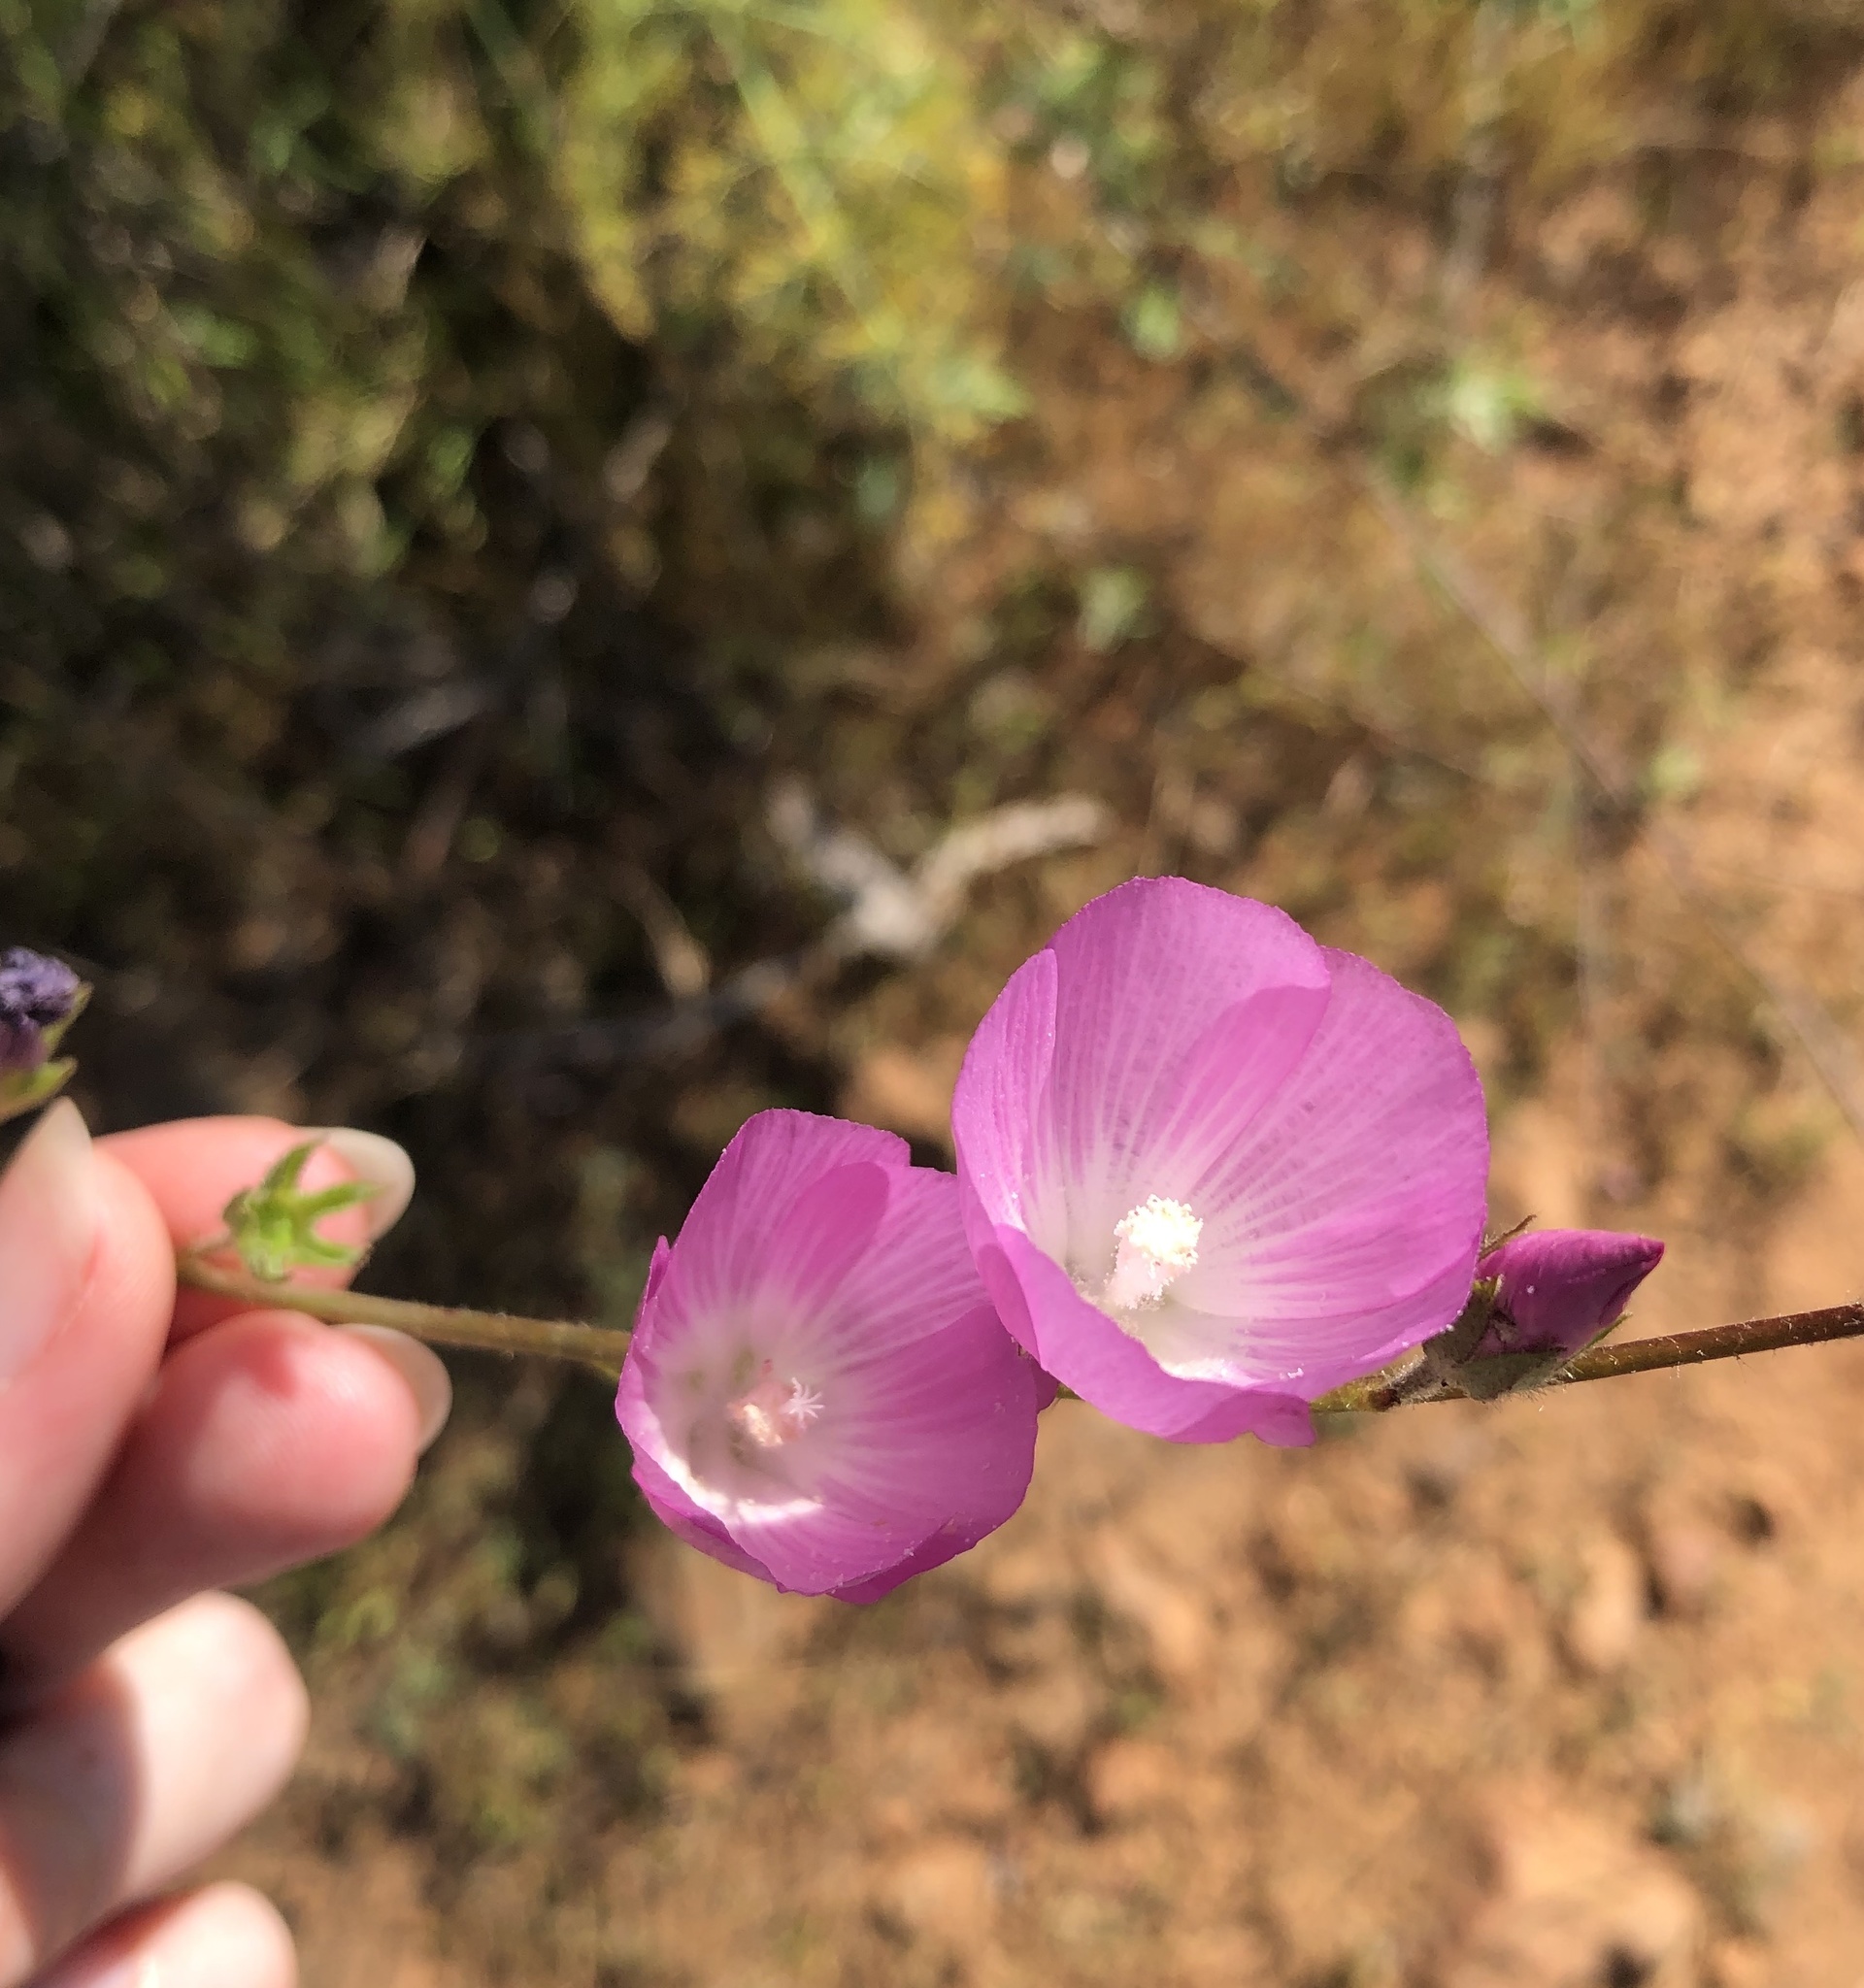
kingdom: Plantae
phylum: Tracheophyta
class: Magnoliopsida
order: Malvales
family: Malvaceae
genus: Sidalcea
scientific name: Sidalcea sparsifolia
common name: Southern checkerbloom
